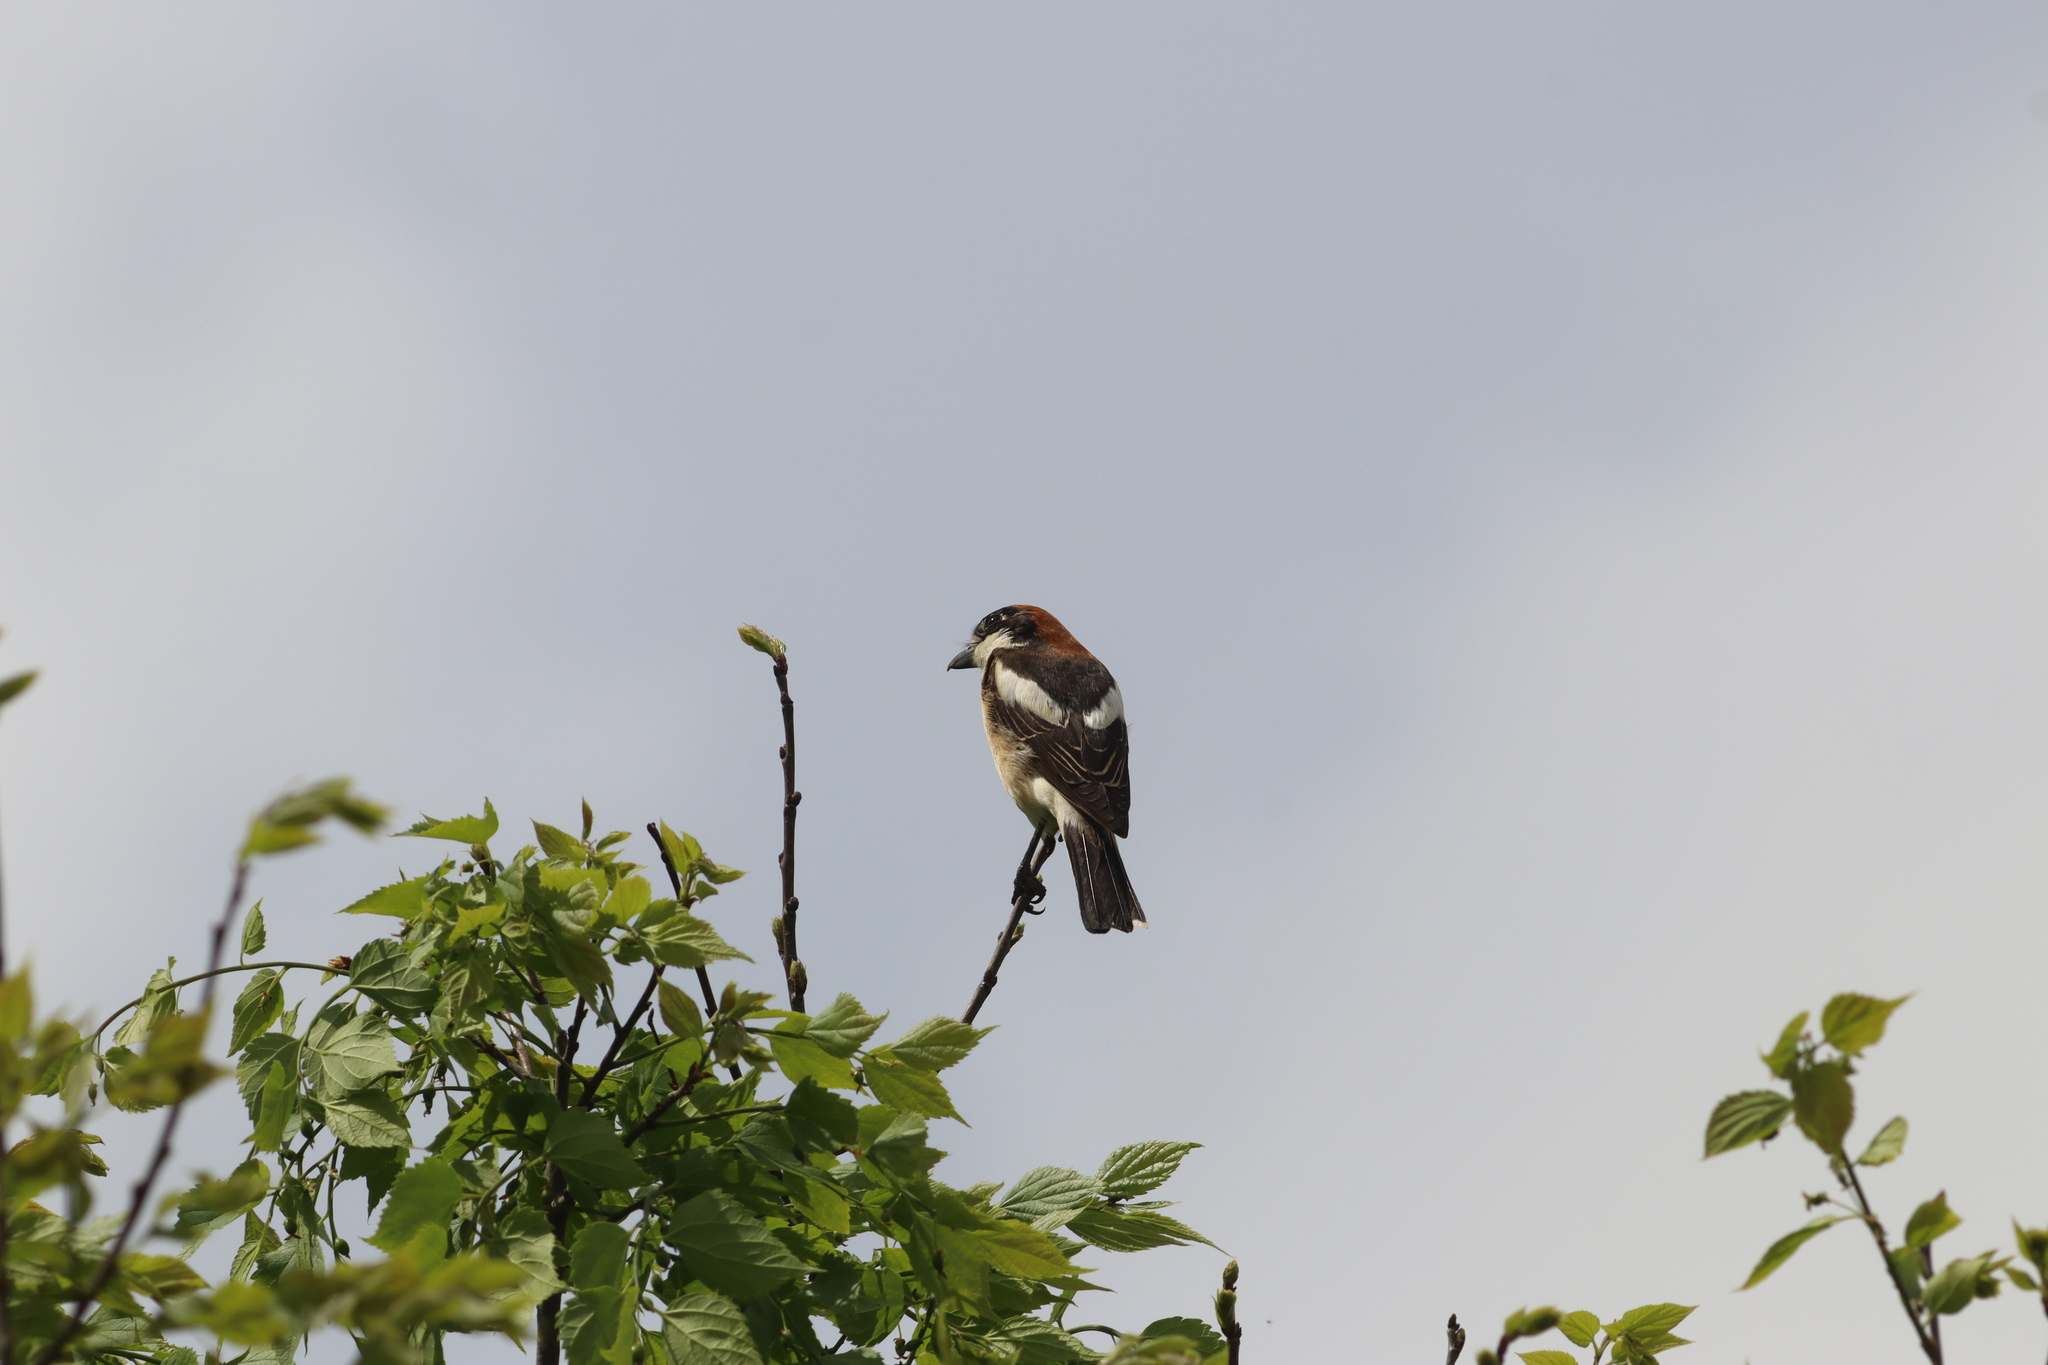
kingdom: Animalia
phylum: Chordata
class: Aves
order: Passeriformes
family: Laniidae
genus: Lanius
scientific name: Lanius senator
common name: Woodchat shrike
